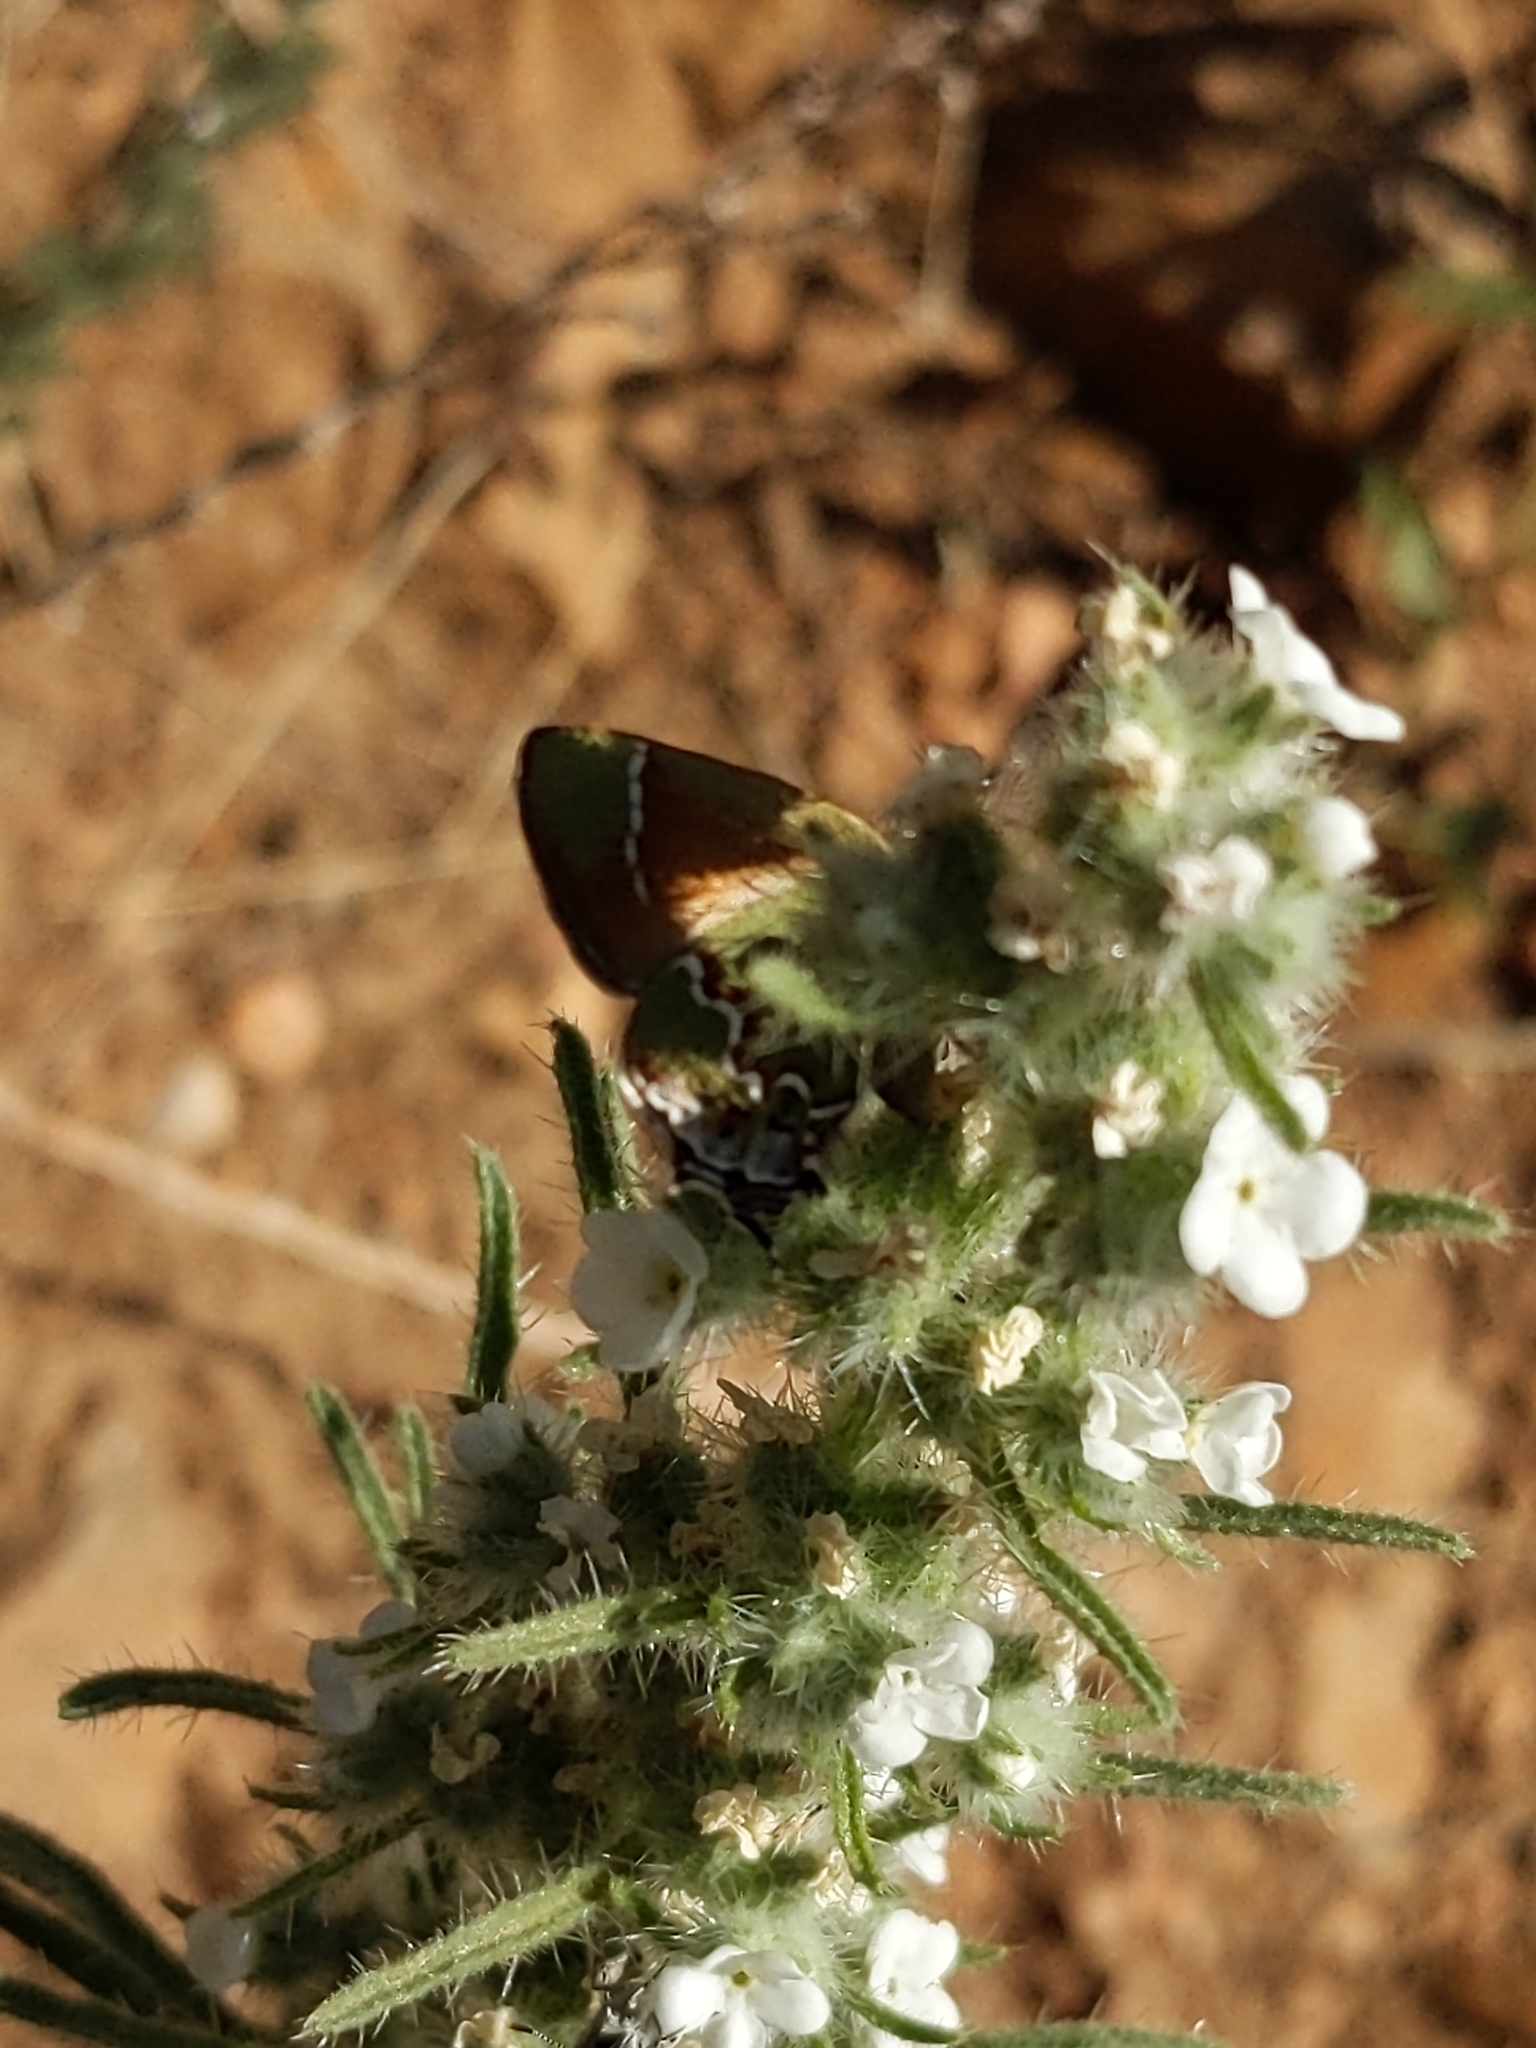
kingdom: Animalia
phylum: Arthropoda
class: Insecta
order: Lepidoptera
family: Lycaenidae
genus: Mitoura
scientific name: Mitoura gryneus
